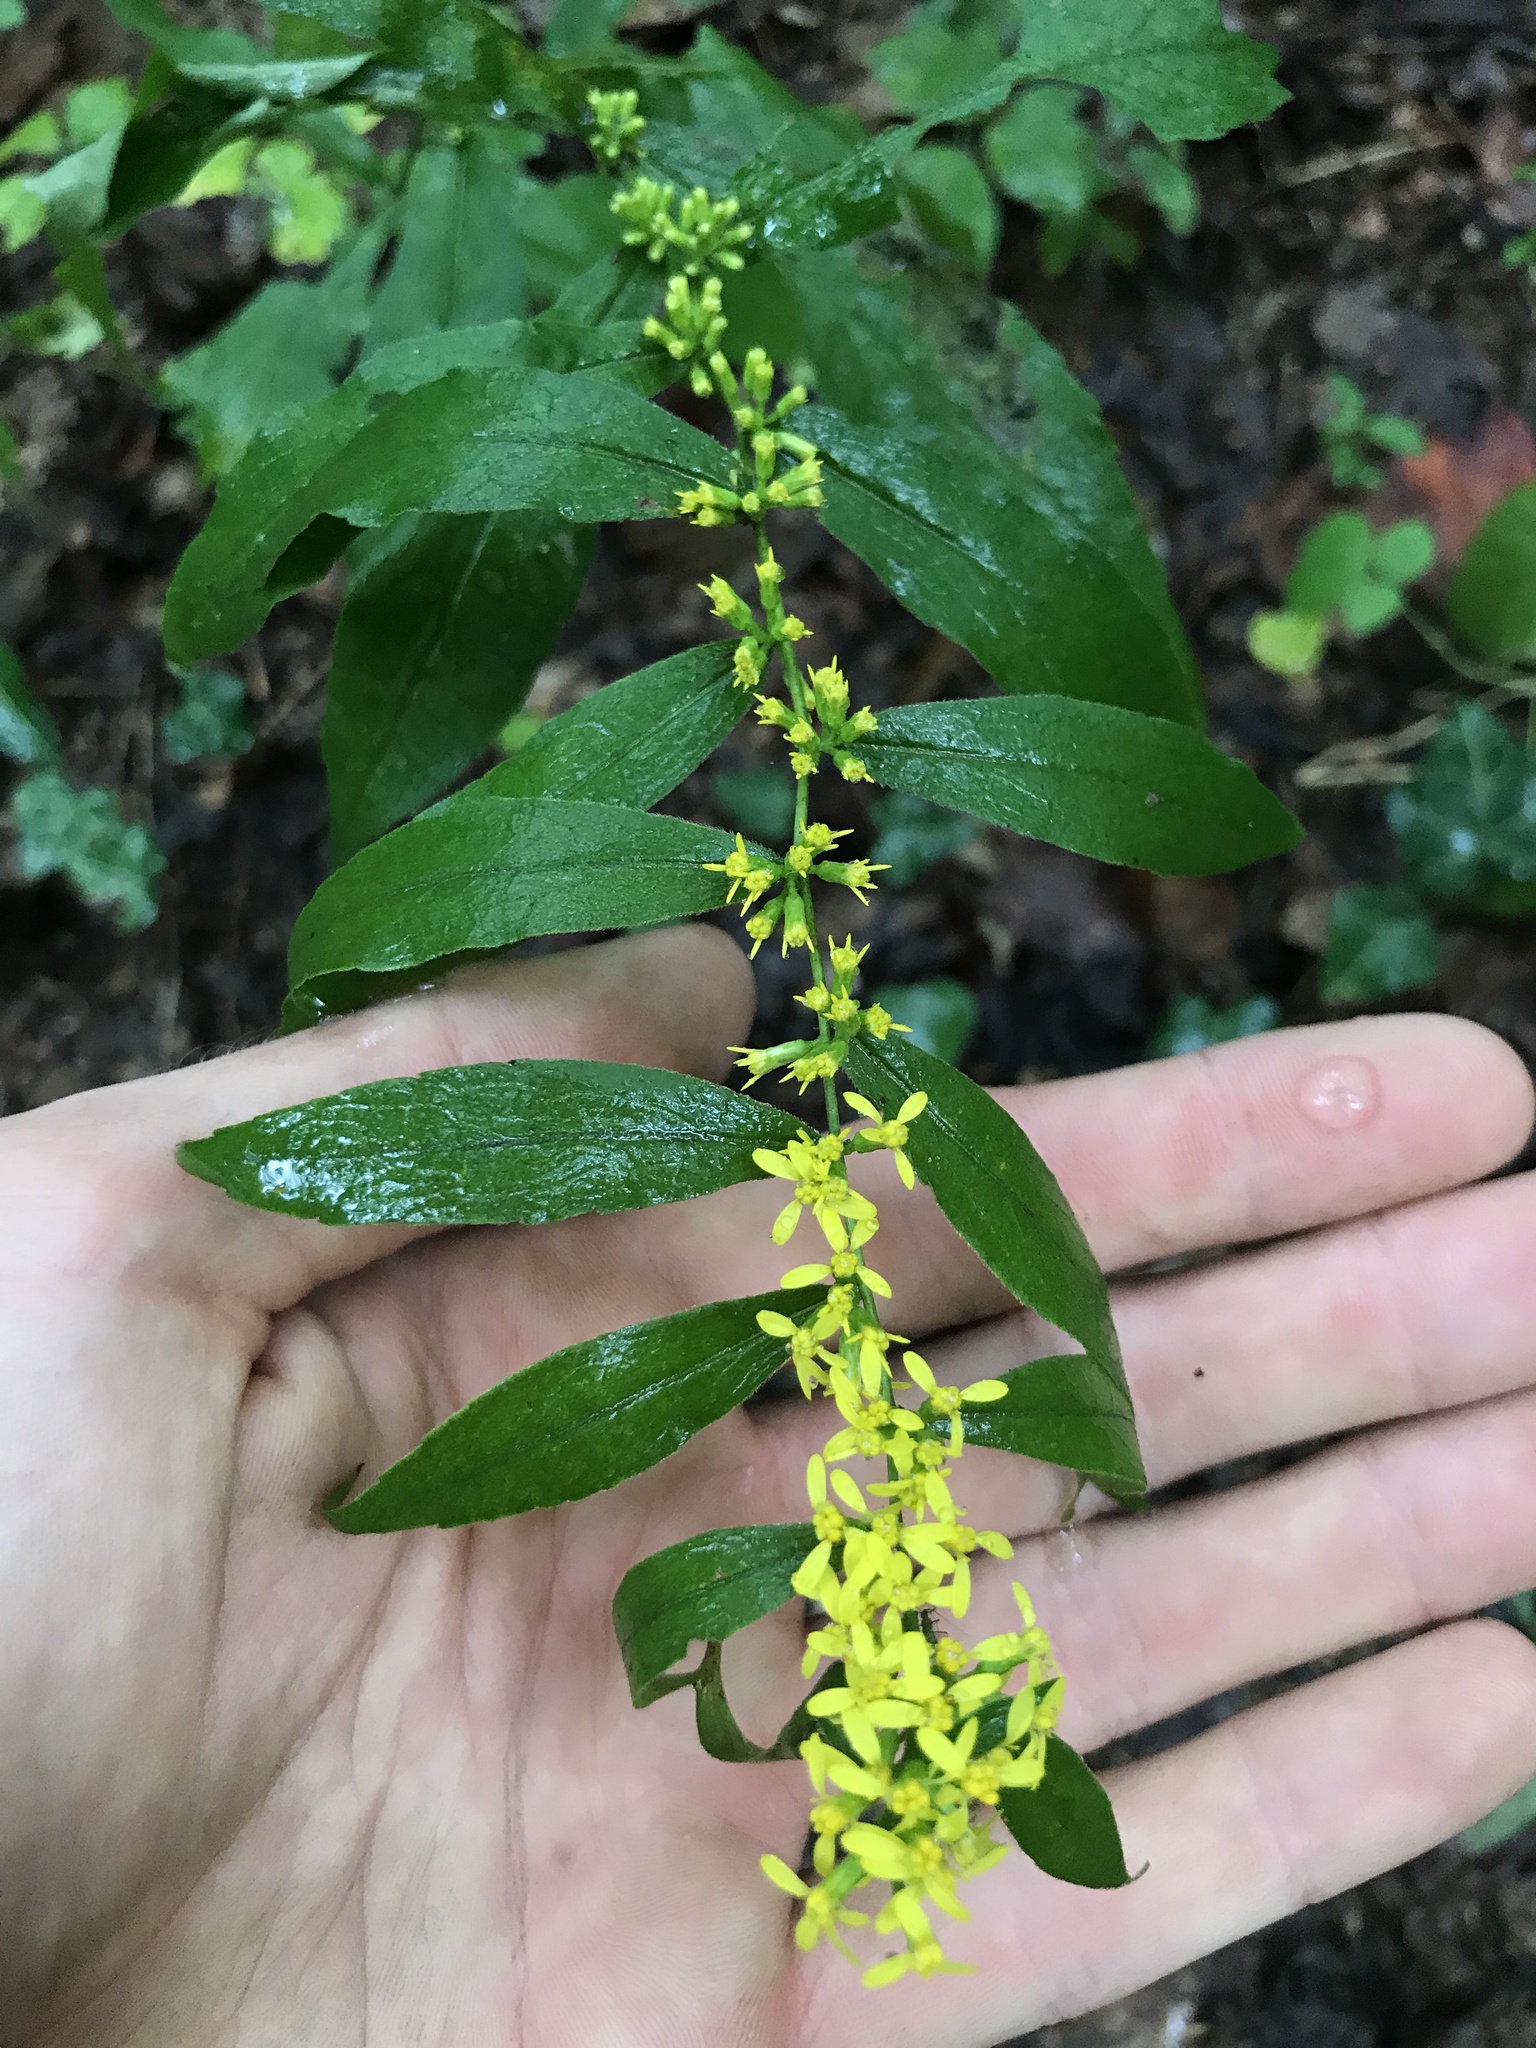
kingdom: Plantae
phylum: Tracheophyta
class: Magnoliopsida
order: Asterales
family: Asteraceae
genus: Solidago
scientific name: Solidago caesia
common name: Woodland goldenrod
